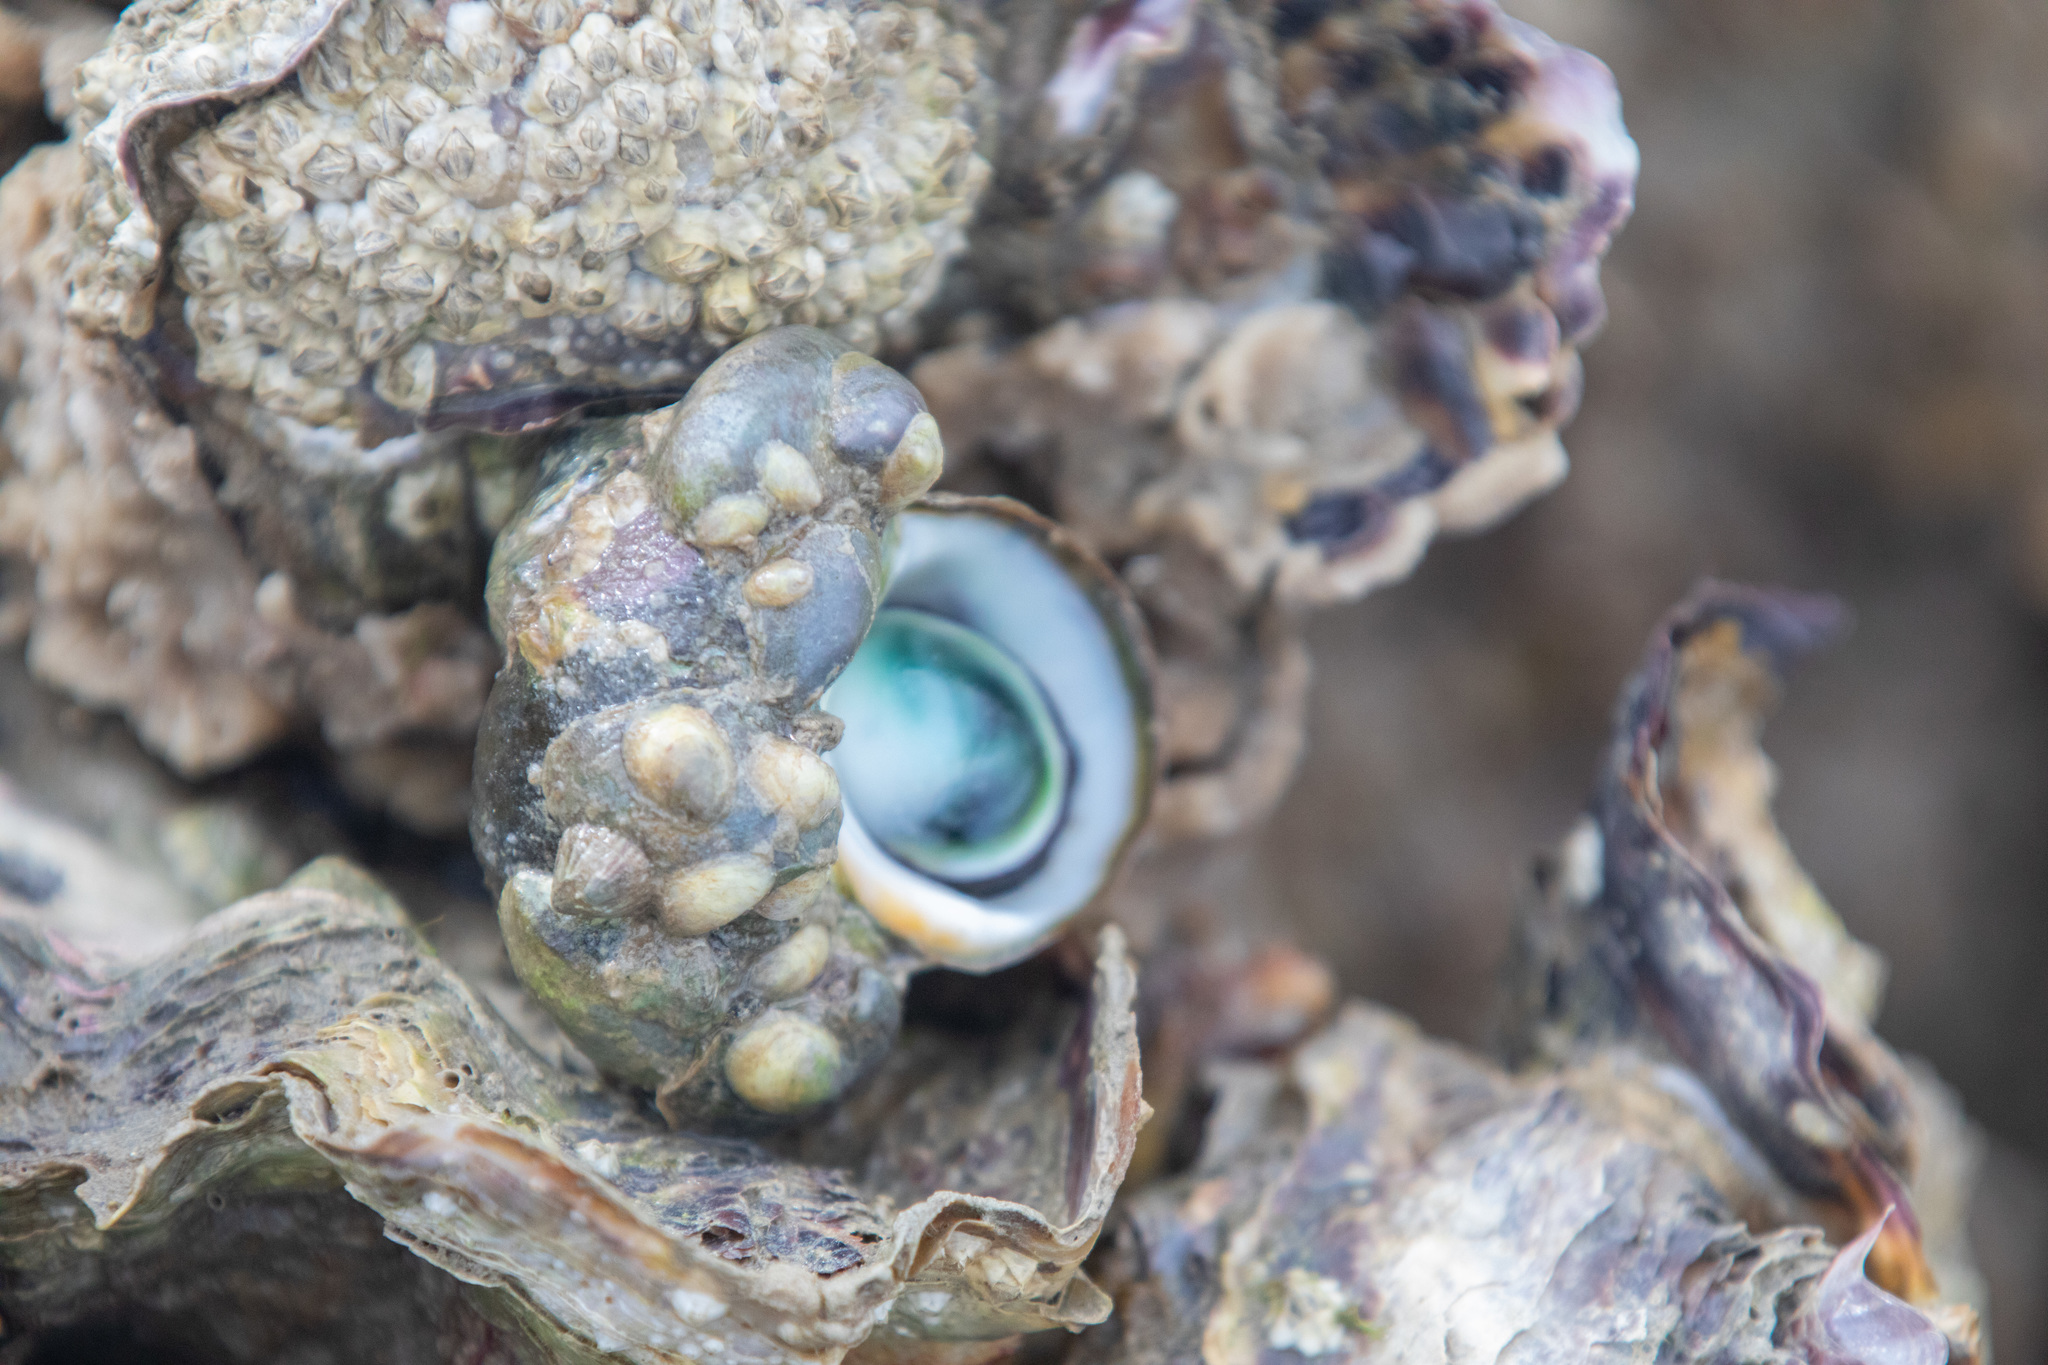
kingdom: Animalia
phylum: Mollusca
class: Gastropoda
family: Lottiidae
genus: Notoacmea
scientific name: Notoacmea
